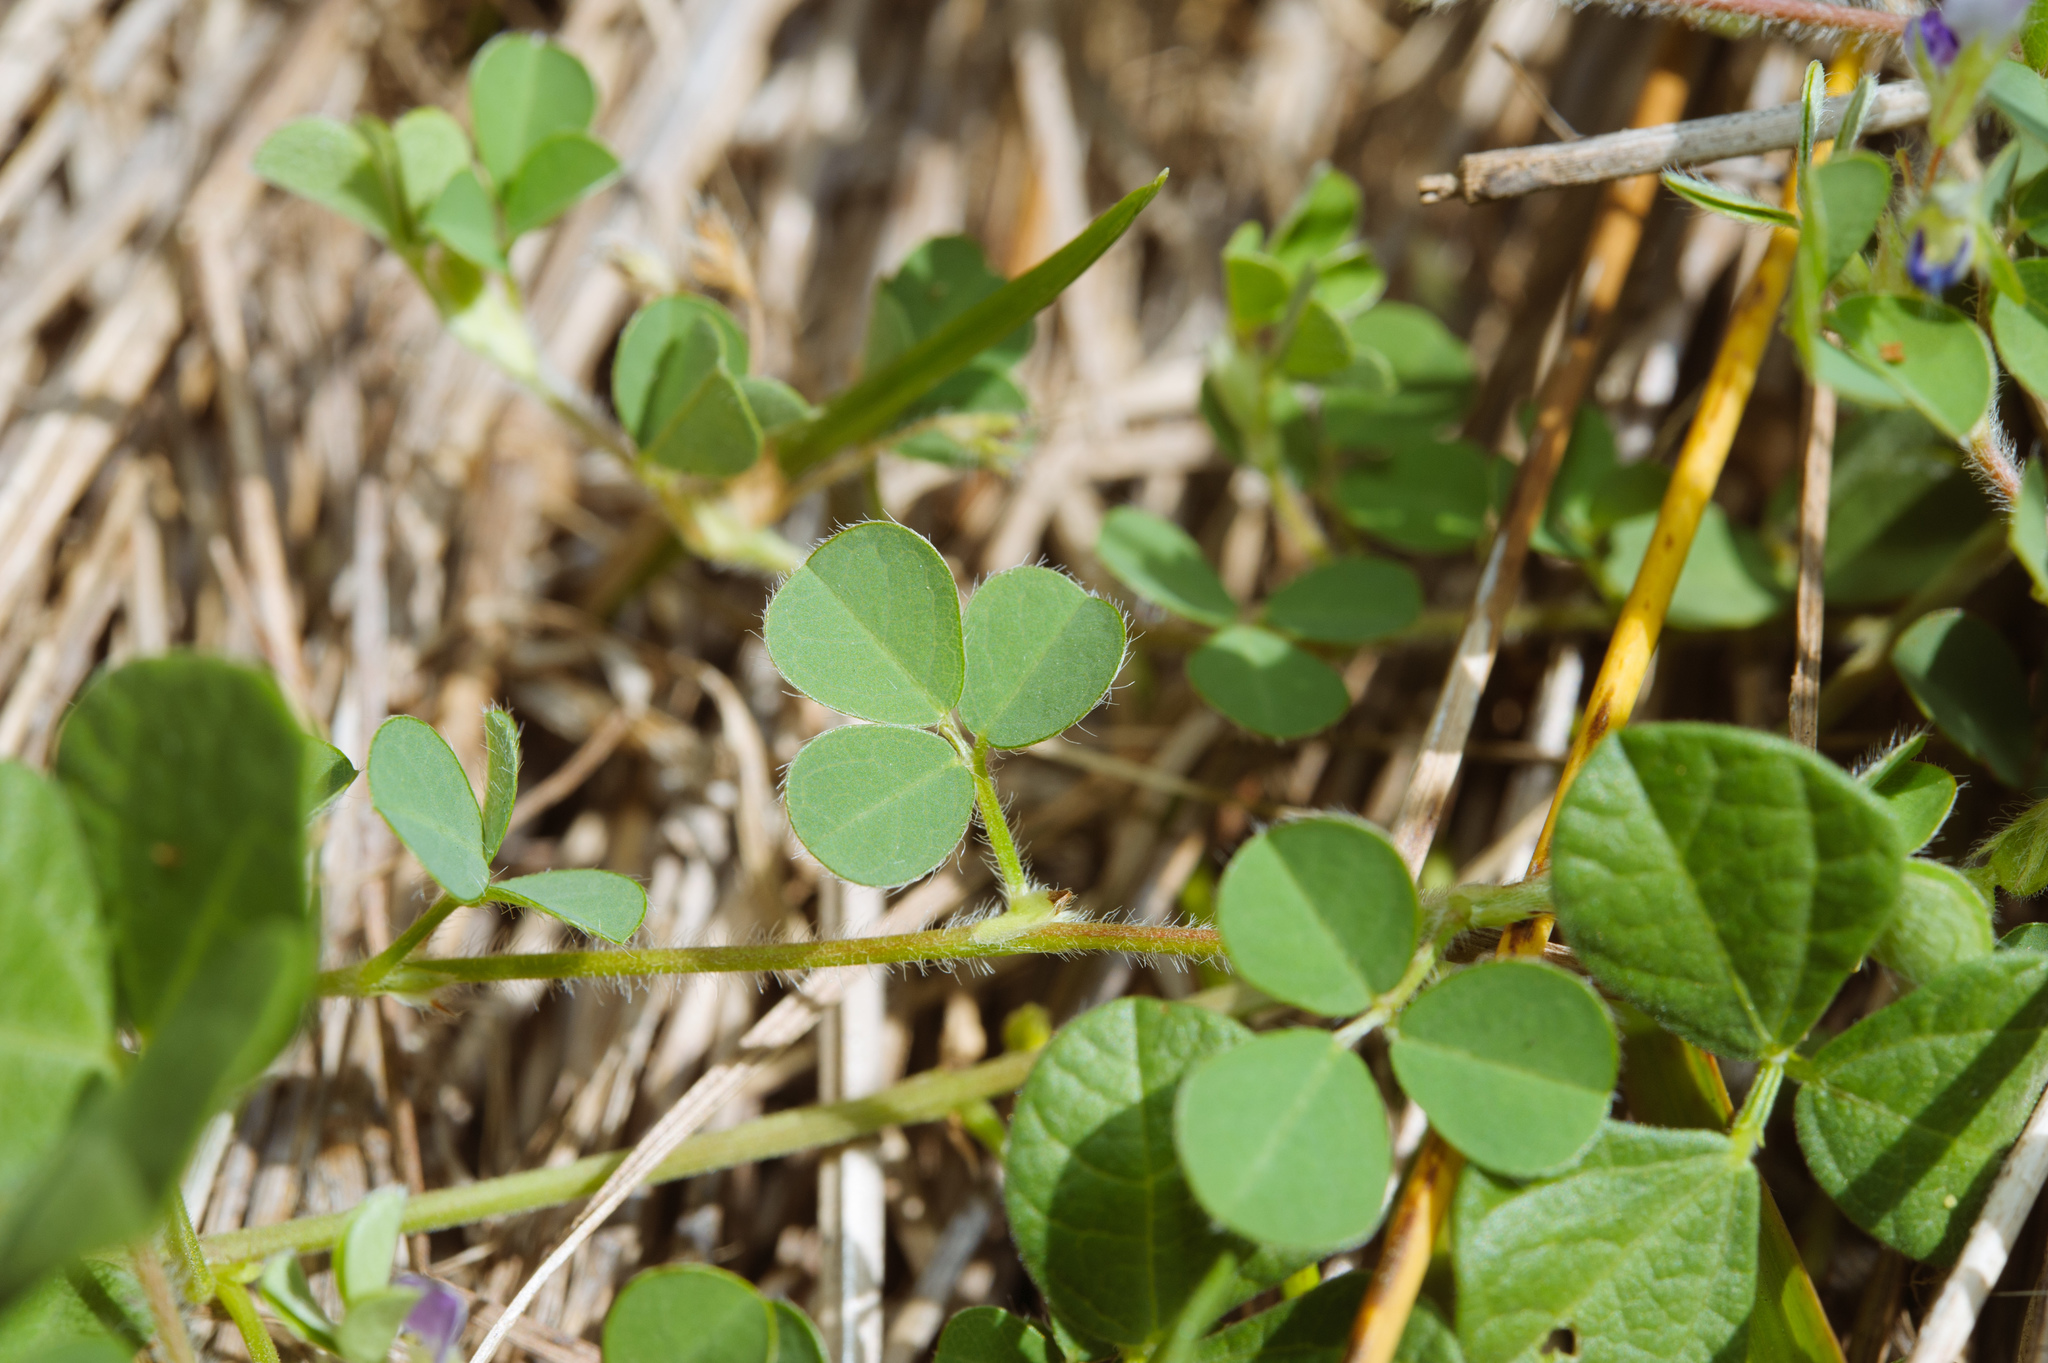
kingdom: Plantae
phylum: Tracheophyta
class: Magnoliopsida
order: Fabales
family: Fabaceae
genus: Grona
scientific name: Grona triflora
